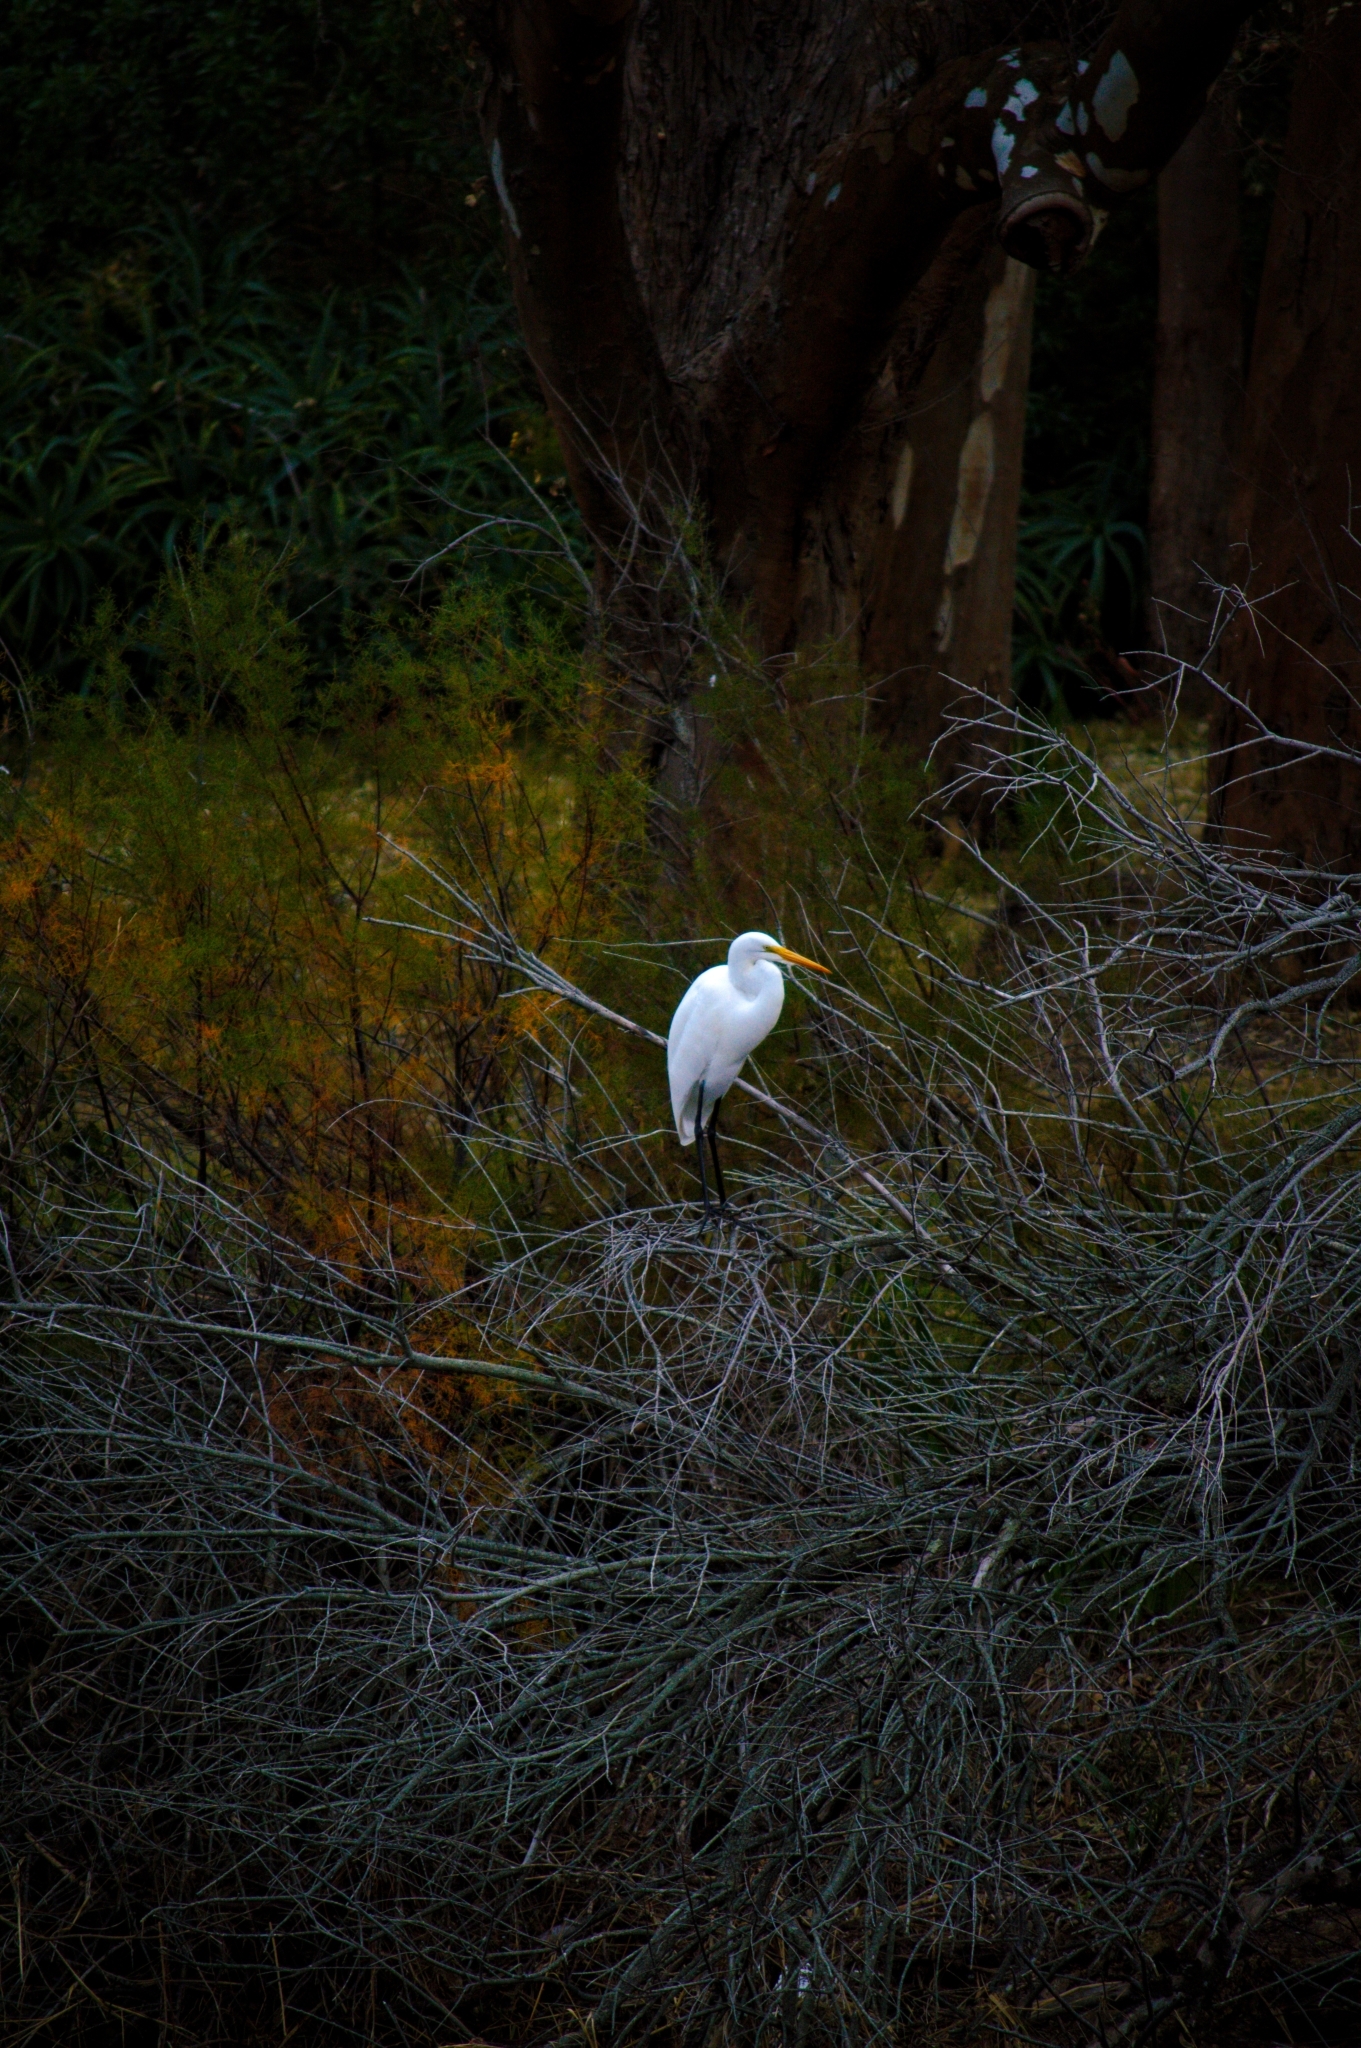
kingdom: Animalia
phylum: Chordata
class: Aves
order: Pelecaniformes
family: Ardeidae
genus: Ardea
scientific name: Ardea alba
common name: Great egret
